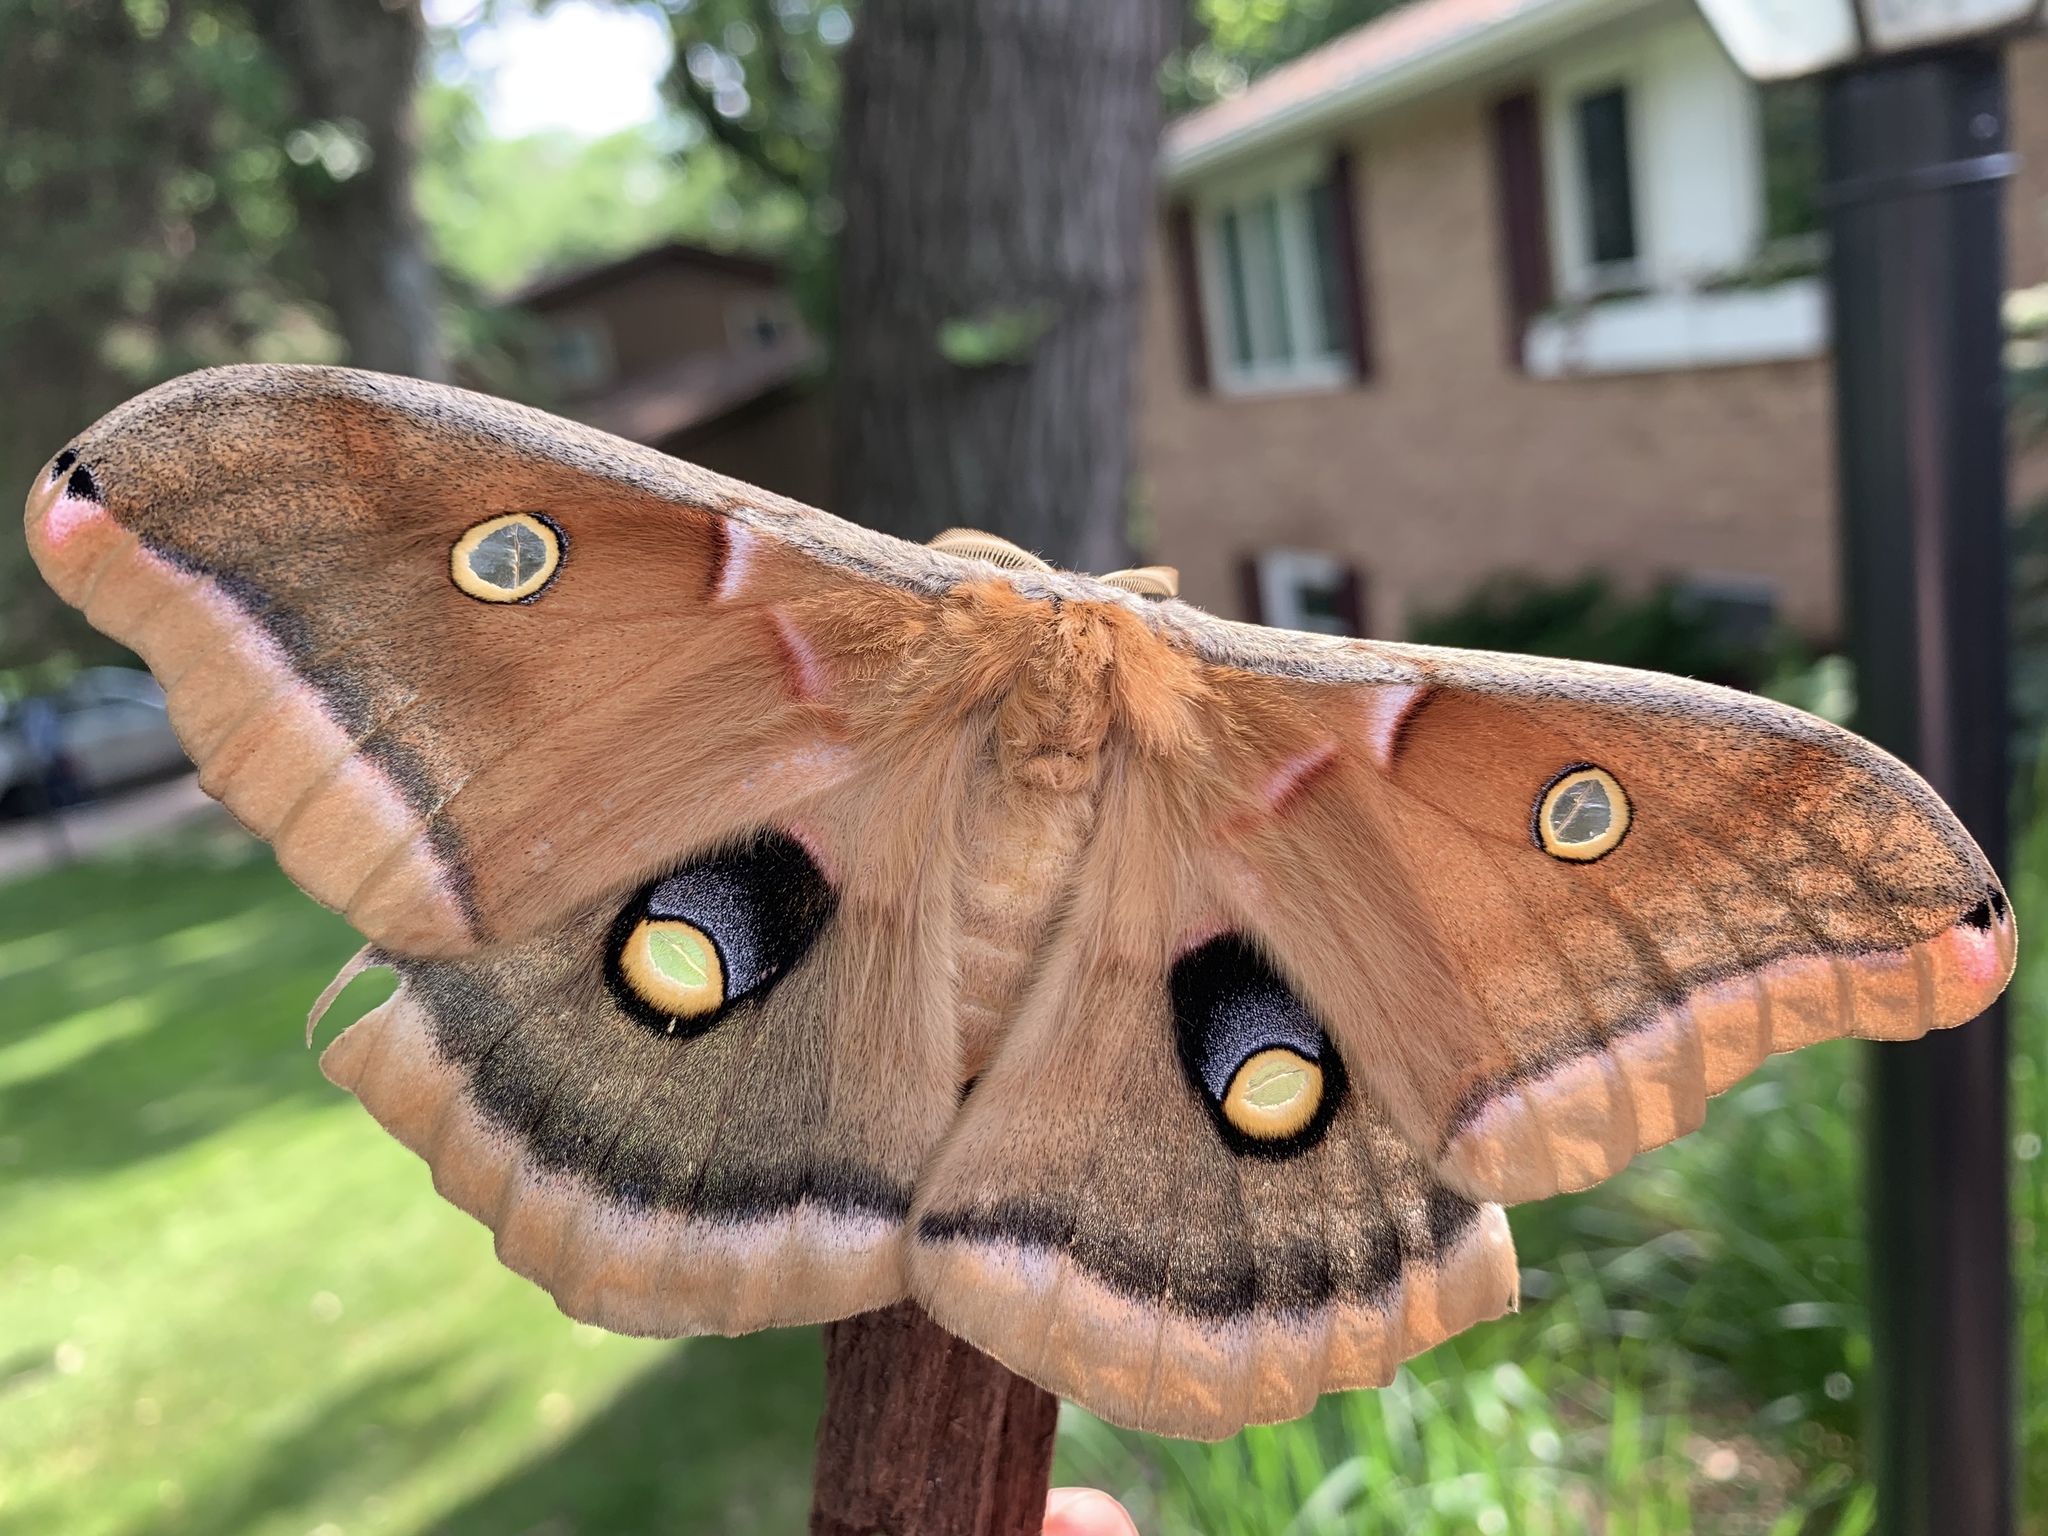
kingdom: Animalia
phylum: Arthropoda
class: Insecta
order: Lepidoptera
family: Saturniidae
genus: Antheraea
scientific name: Antheraea polyphemus
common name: Polyphemus moth
